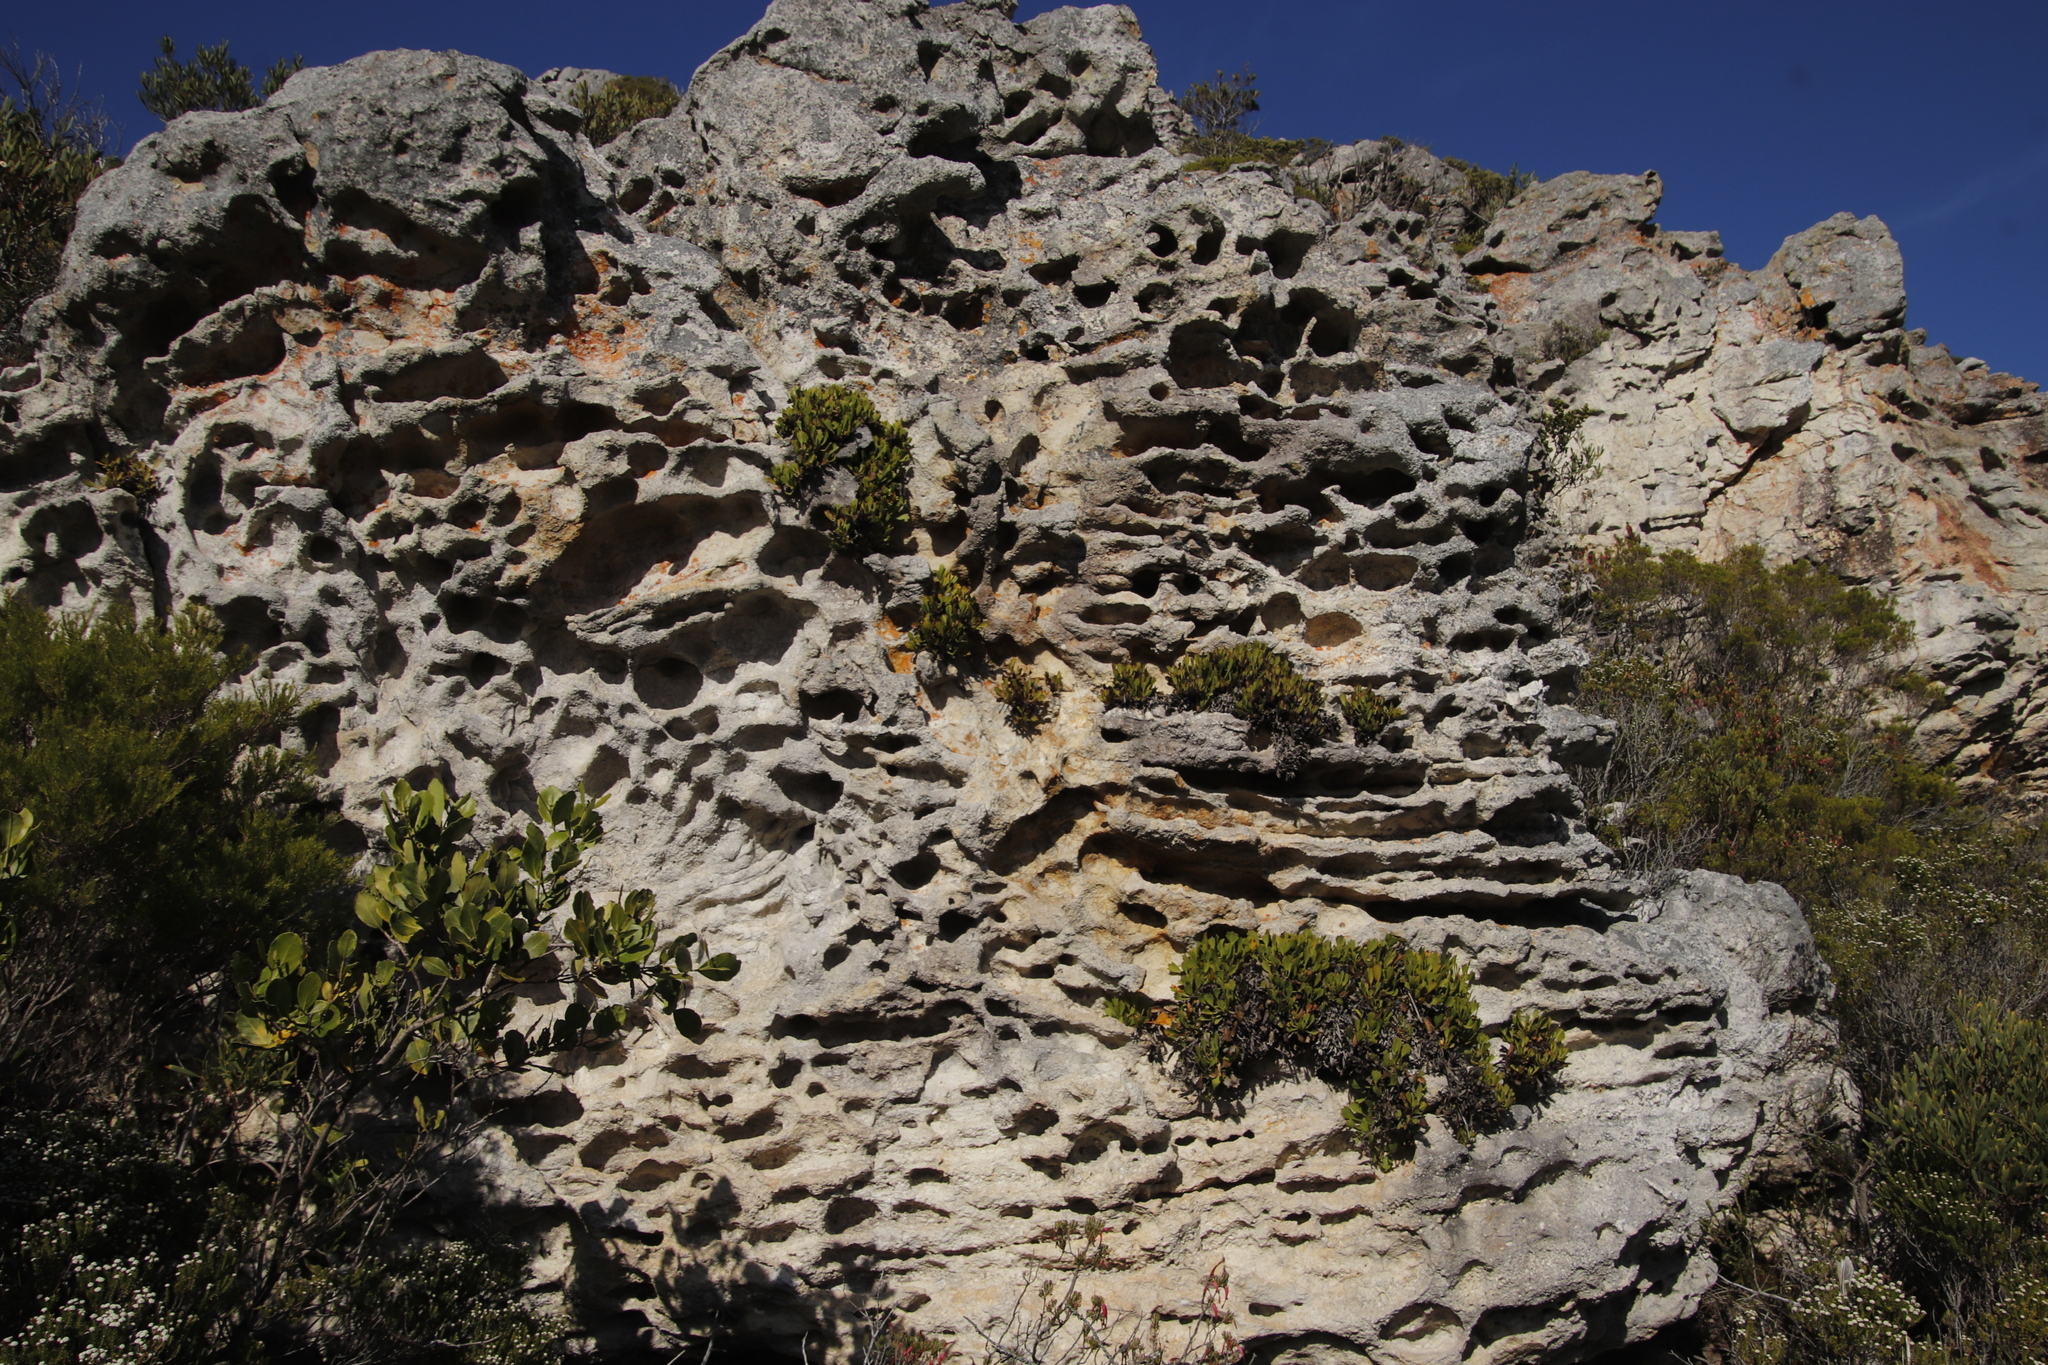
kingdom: Plantae
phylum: Tracheophyta
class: Magnoliopsida
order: Apiales
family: Apiaceae
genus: Centella
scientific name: Centella triloba
